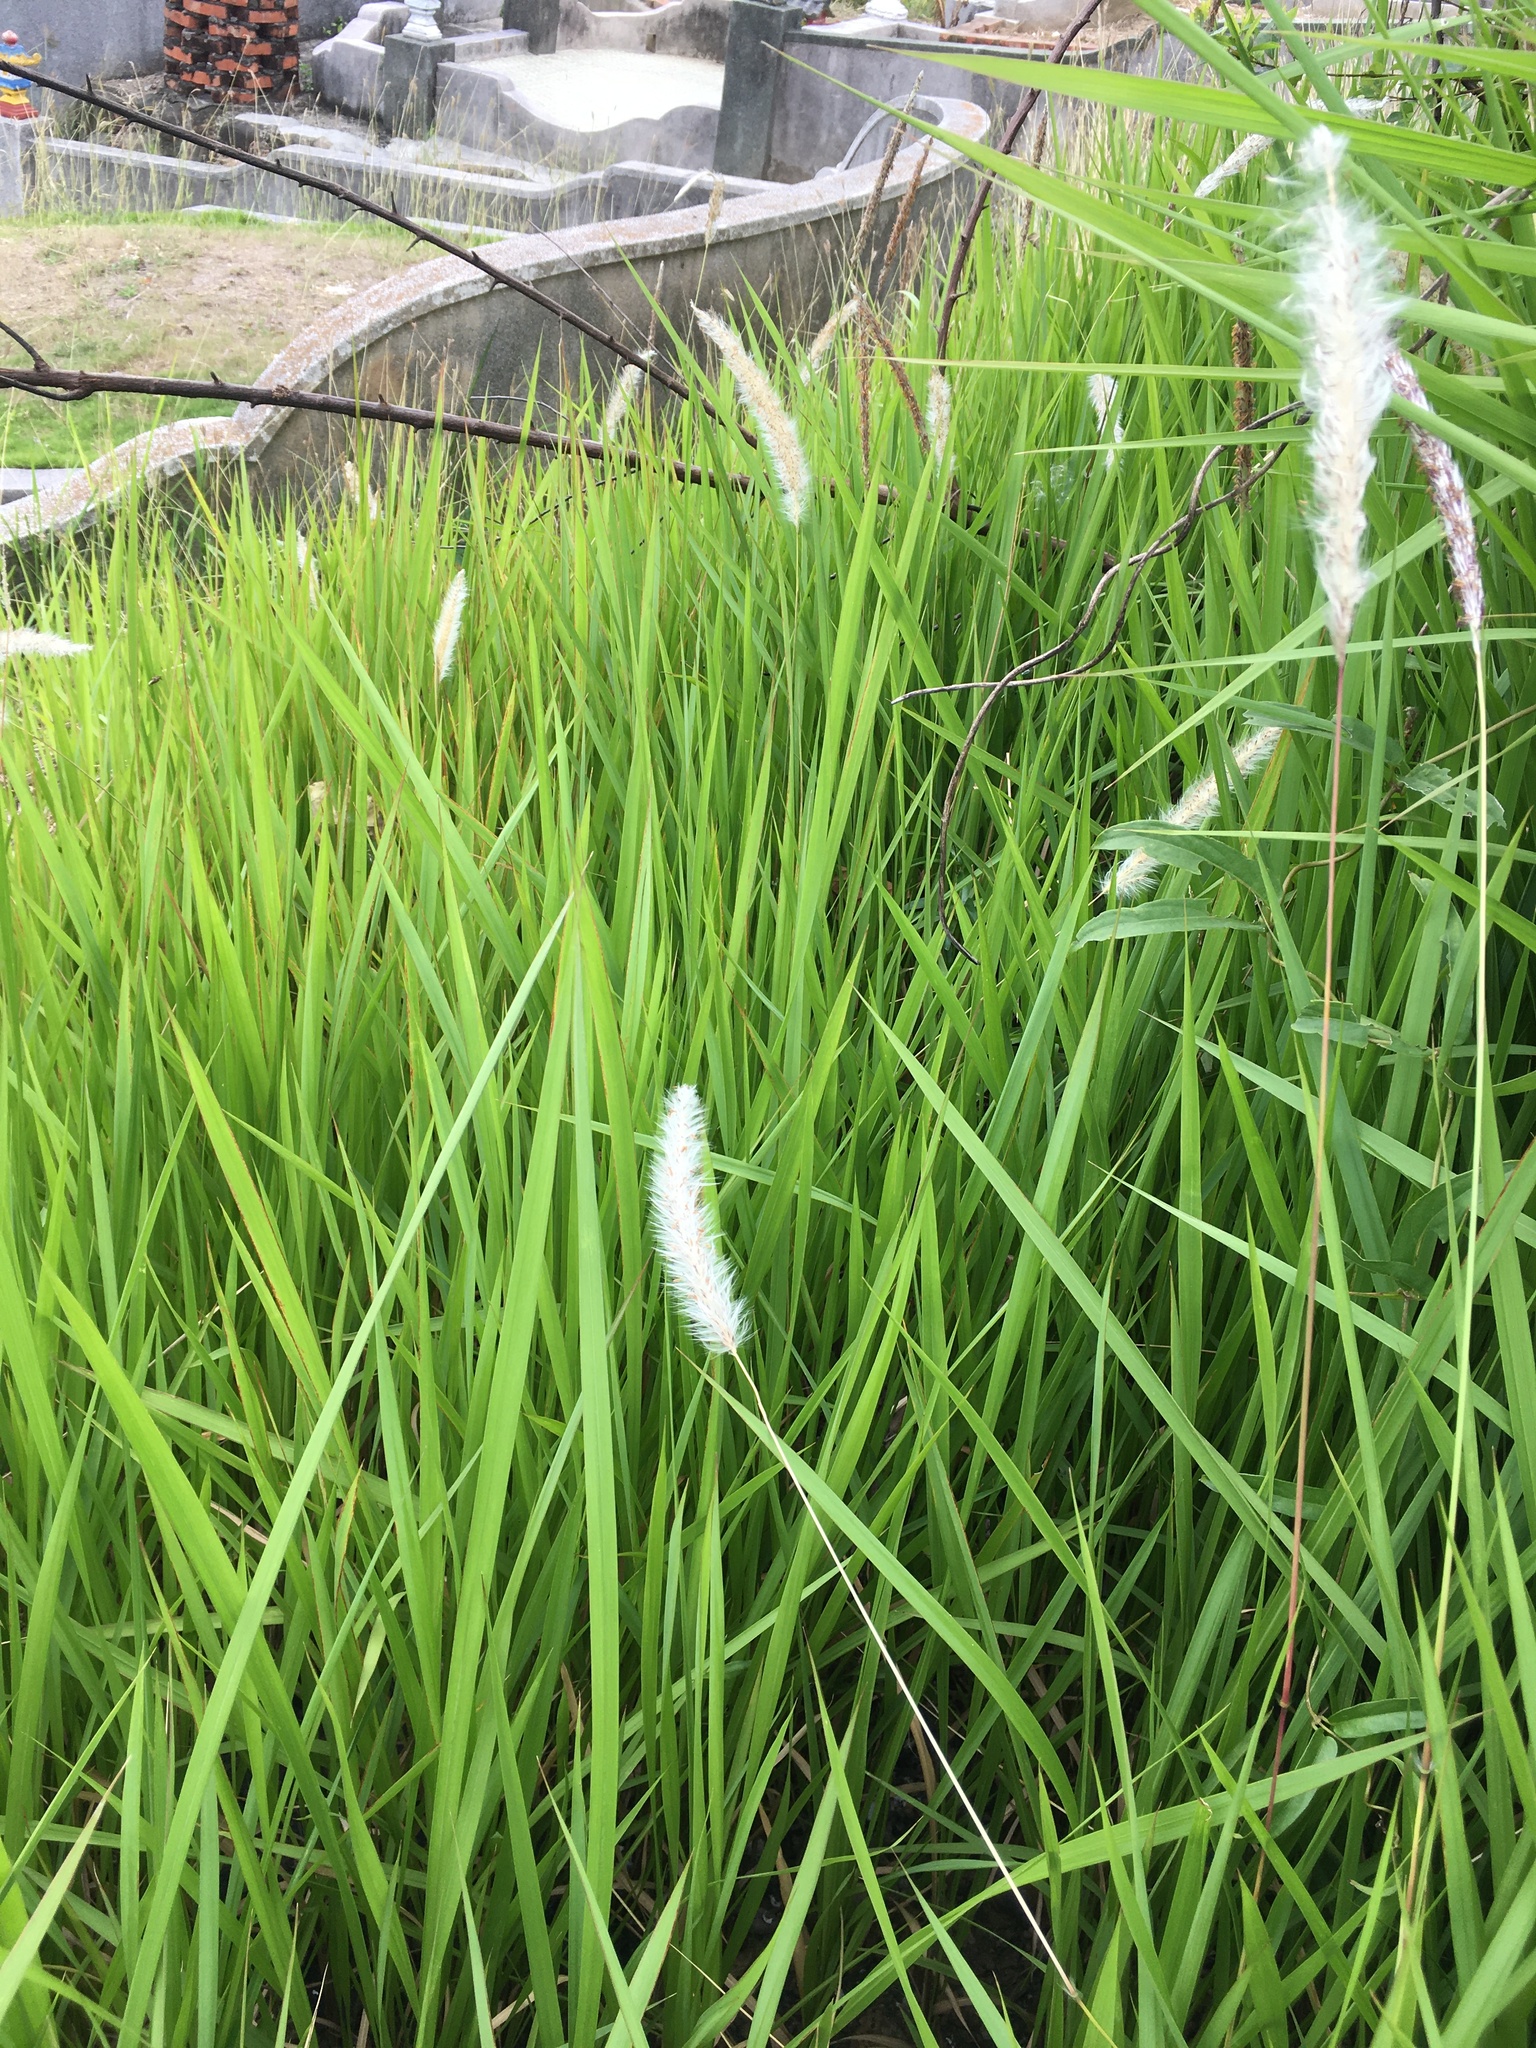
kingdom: Plantae
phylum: Tracheophyta
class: Liliopsida
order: Poales
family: Poaceae
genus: Imperata
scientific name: Imperata cylindrica
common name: Cogongrass
